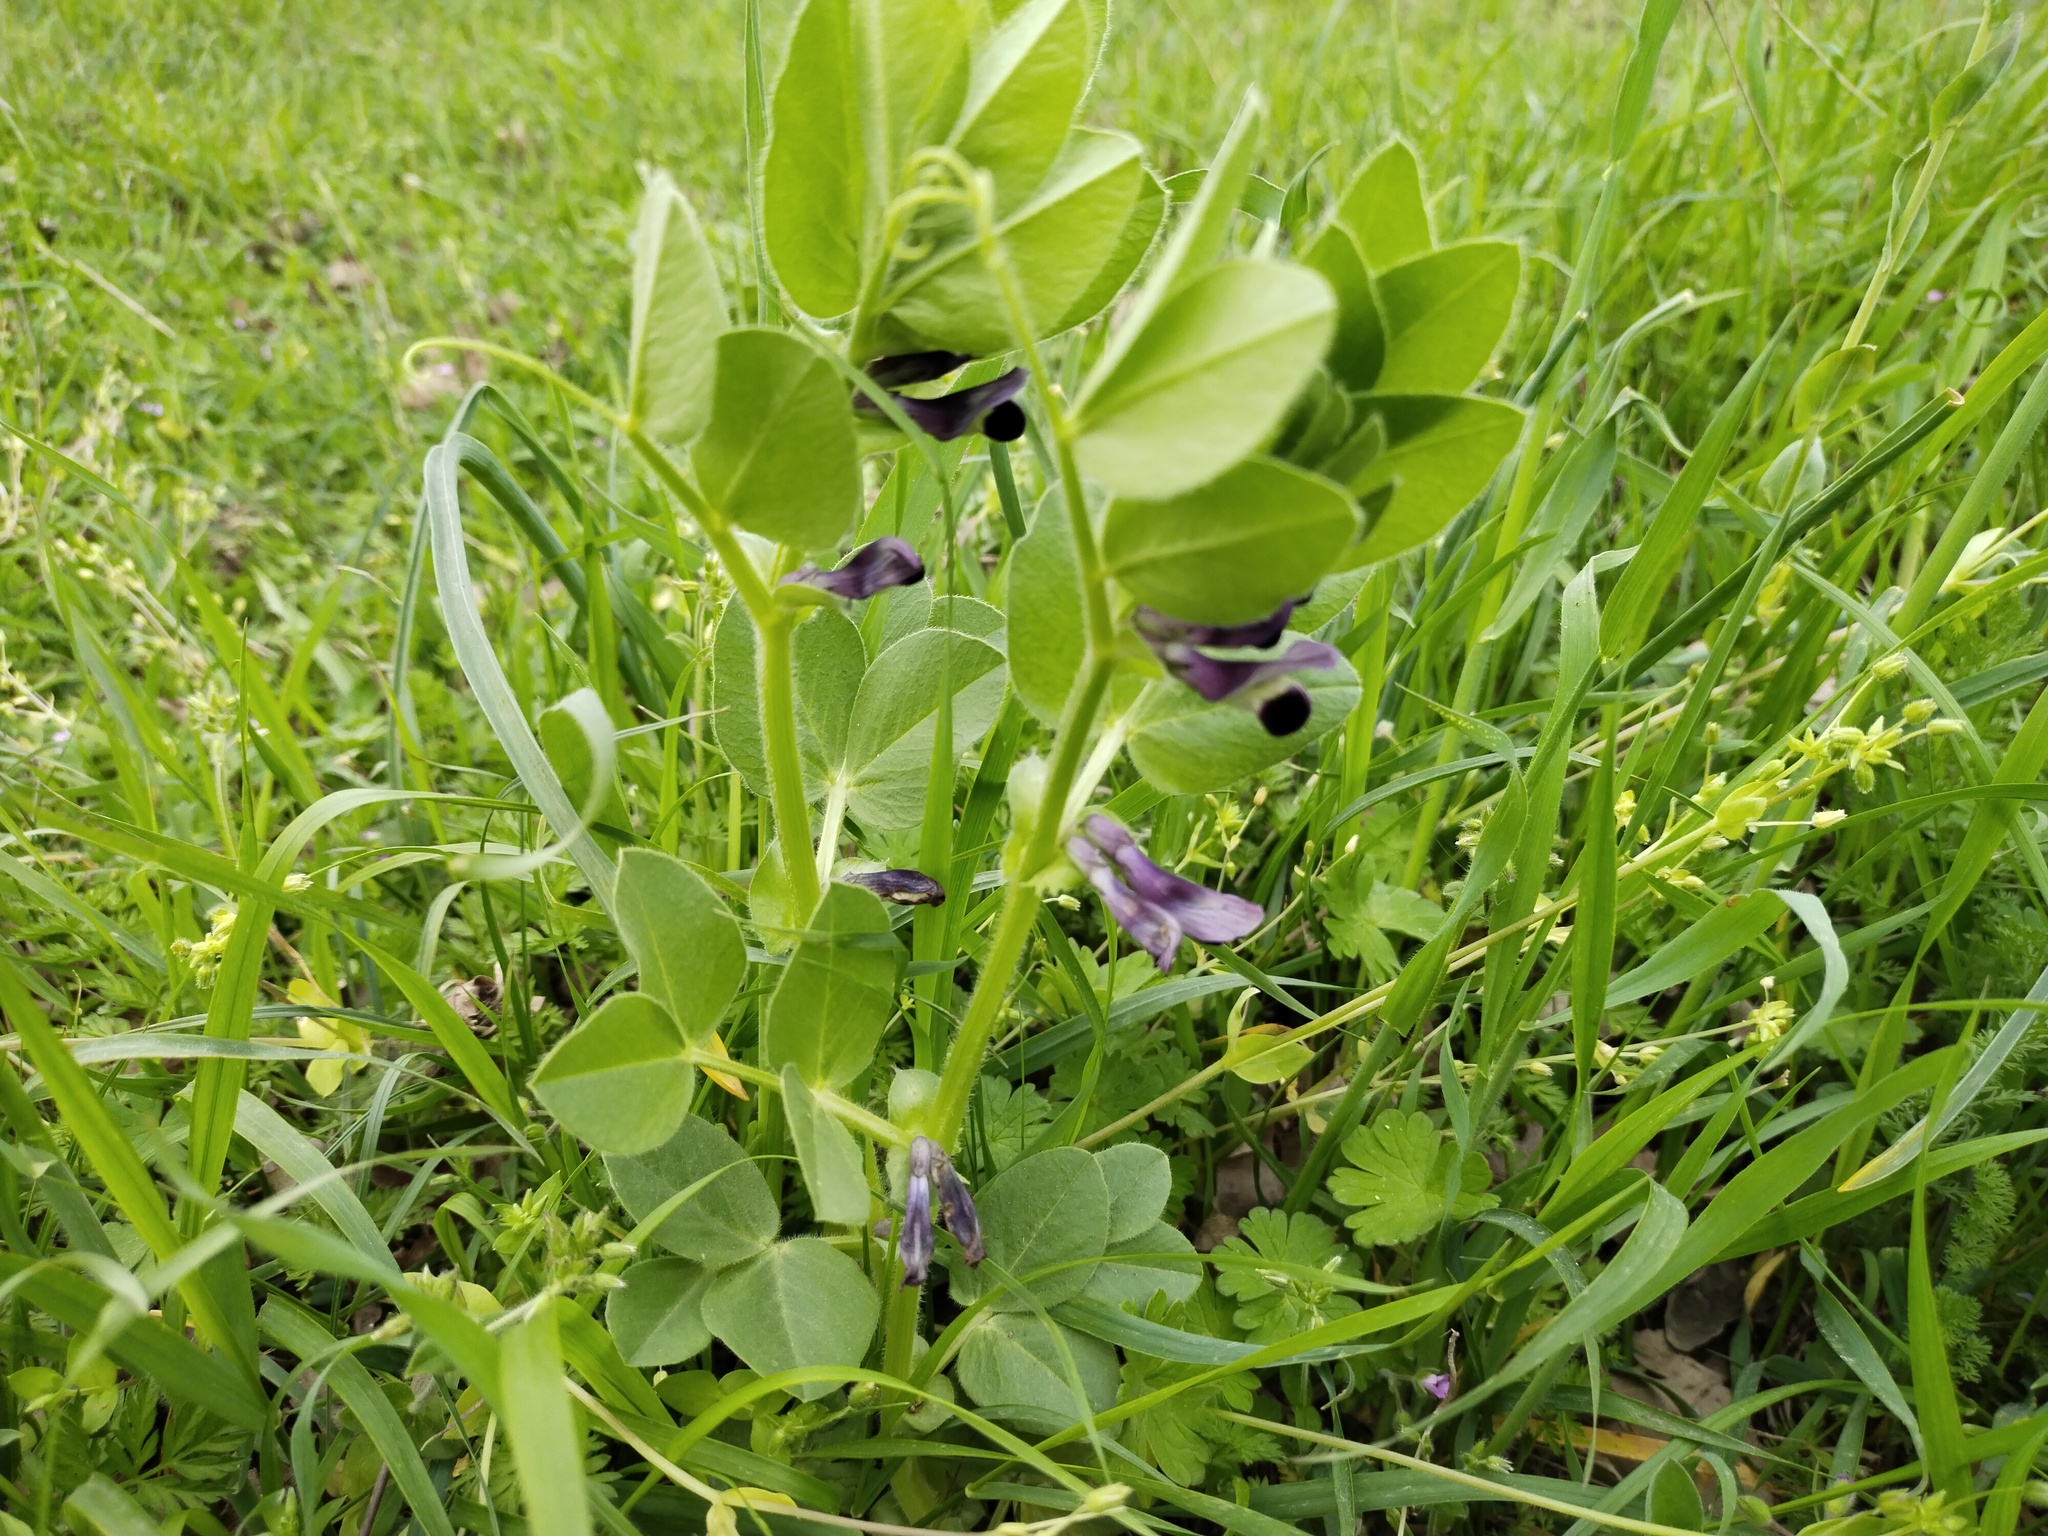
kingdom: Plantae
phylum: Tracheophyta
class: Magnoliopsida
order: Fabales
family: Fabaceae
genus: Vicia
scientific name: Vicia narbonensis
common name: Narbonne vetch
